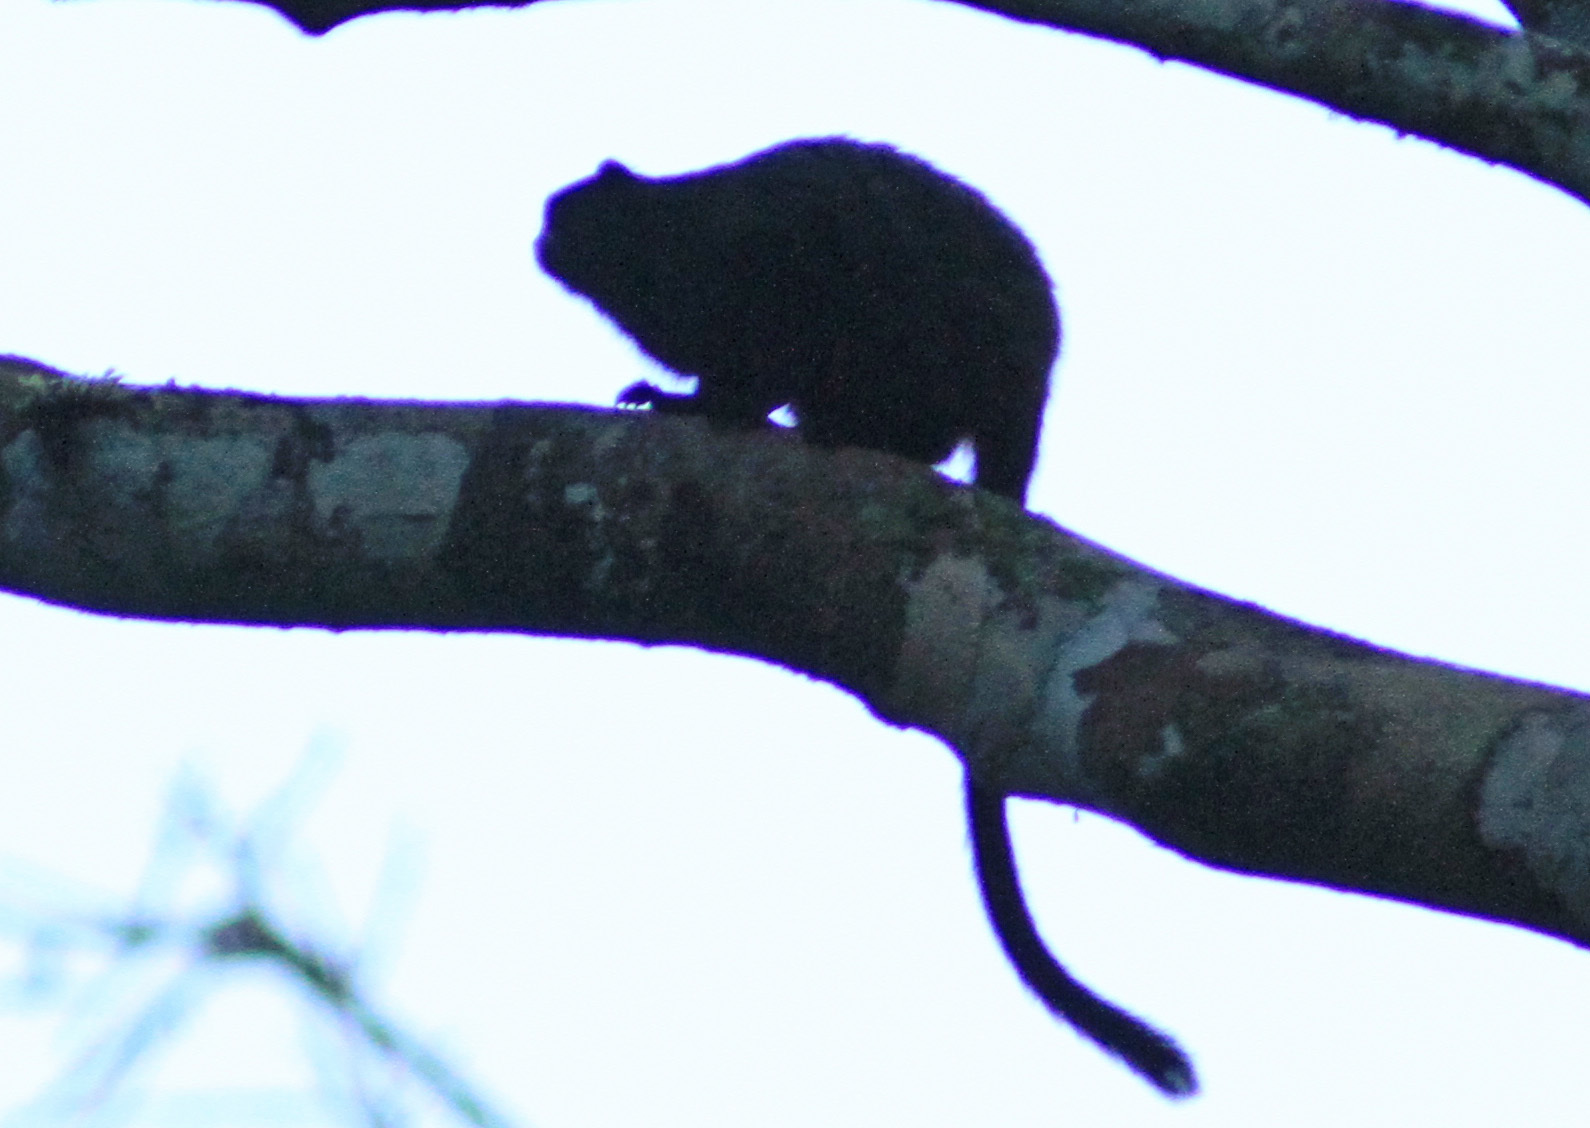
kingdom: Animalia
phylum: Chordata
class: Mammalia
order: Primates
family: Callitrichidae
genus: Leontocebus
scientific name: Leontocebus nigricollis
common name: Black-mantled tamarin
